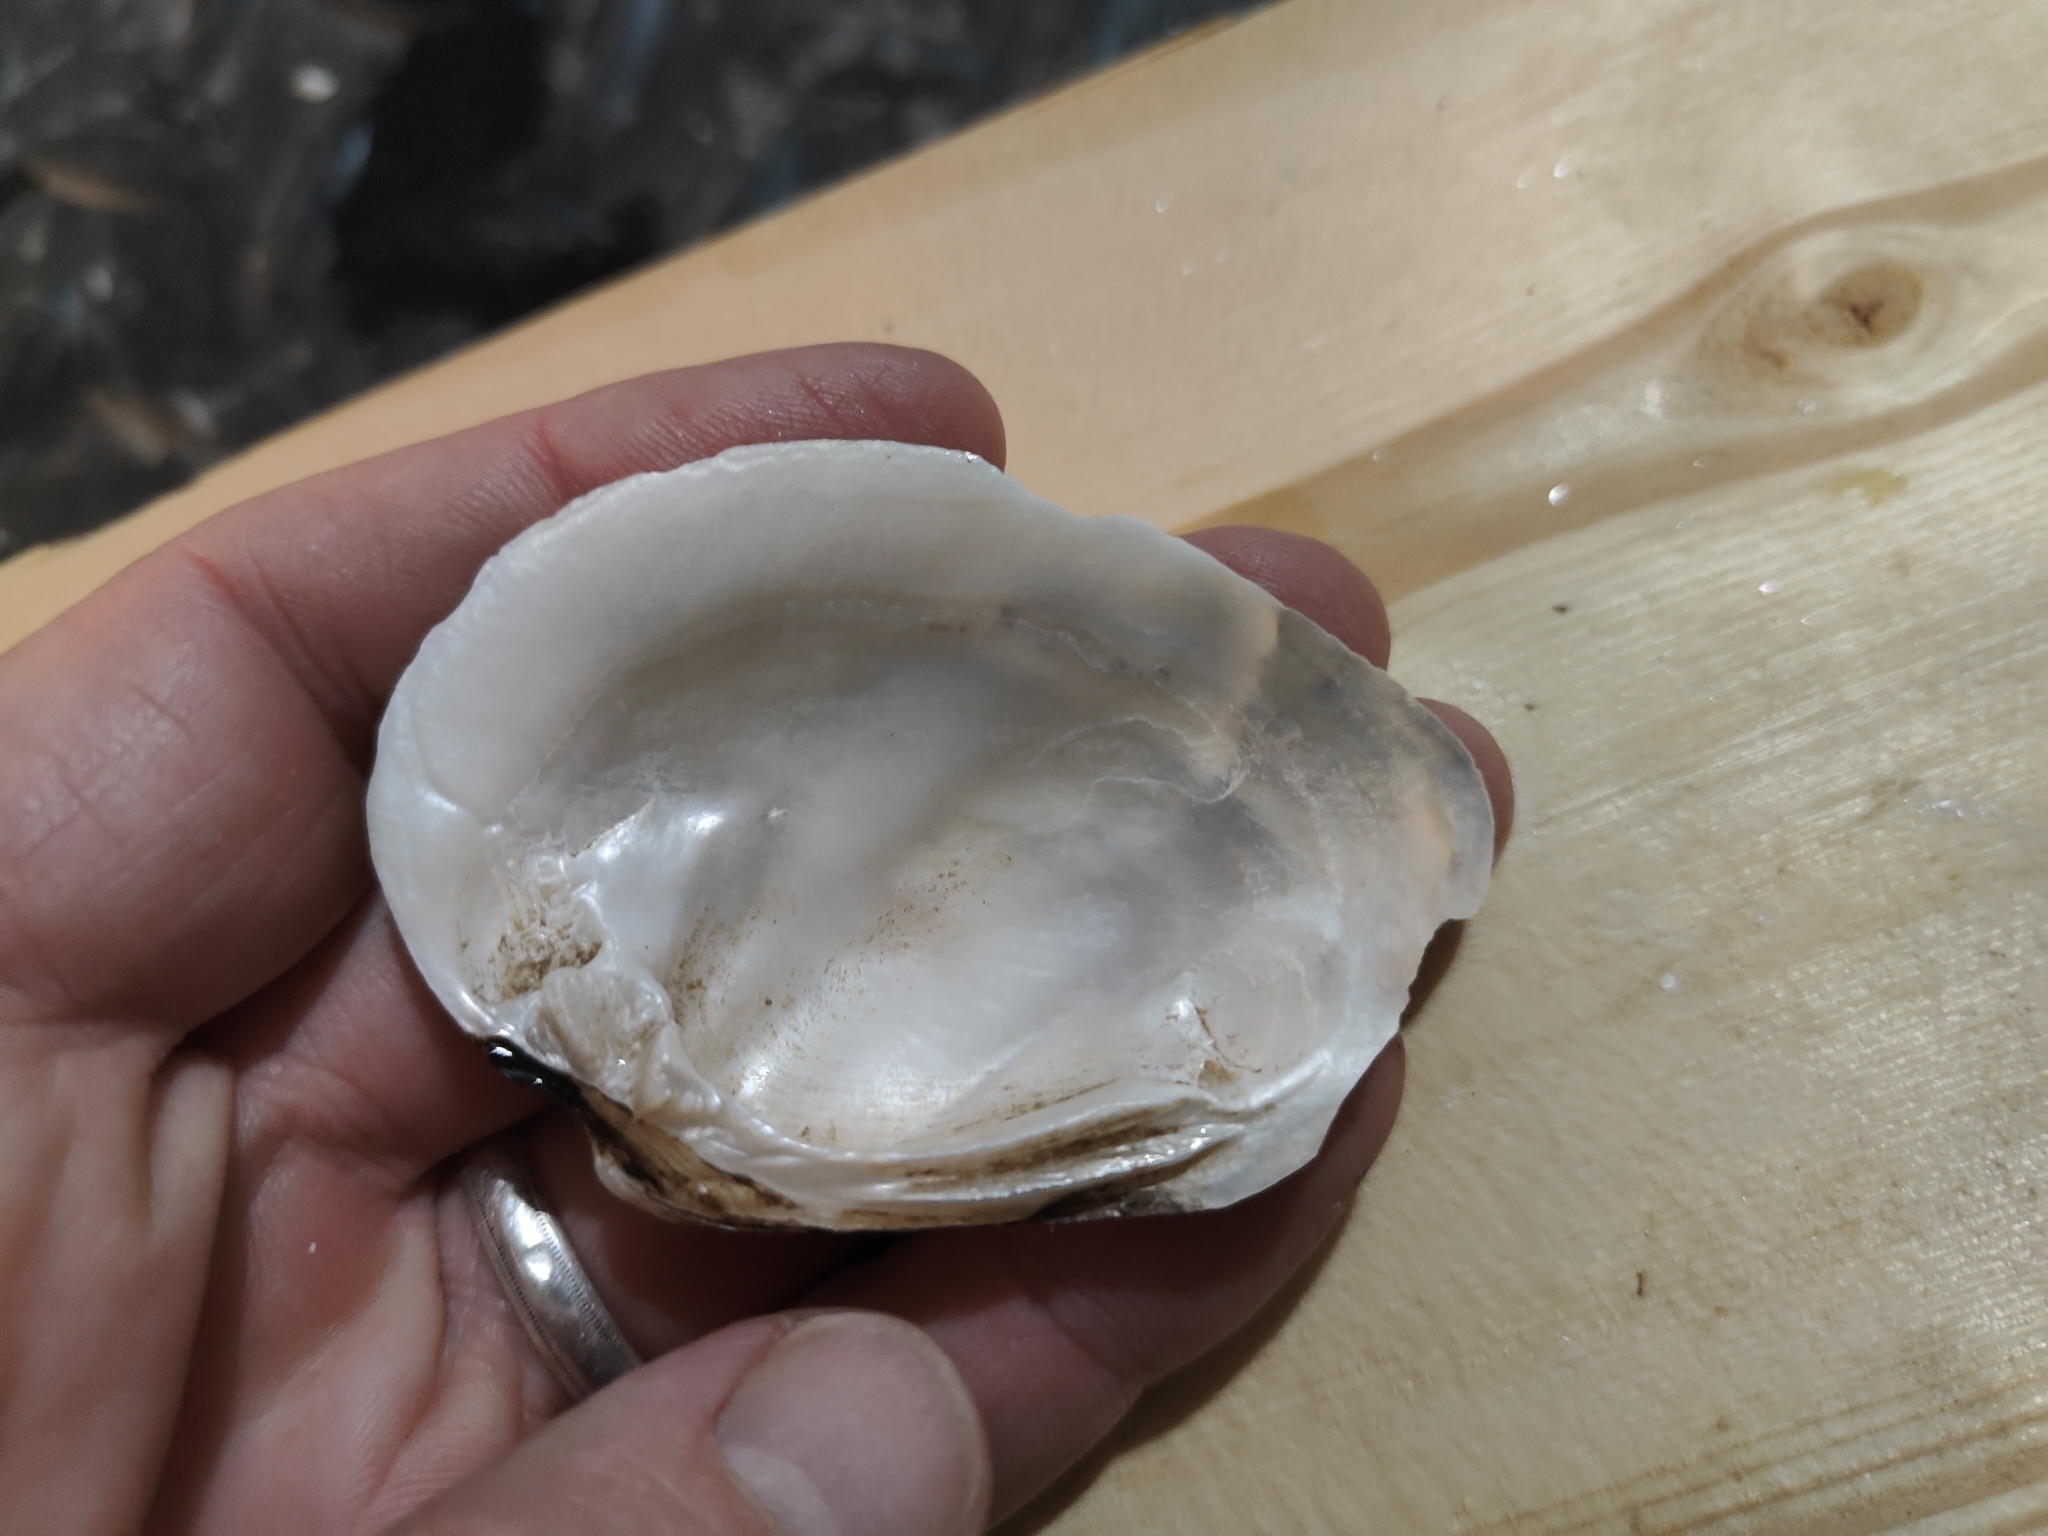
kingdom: Animalia
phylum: Mollusca
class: Bivalvia
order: Unionida
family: Unionidae
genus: Fusconaia
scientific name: Fusconaia flava
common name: Wabash pigtoe
